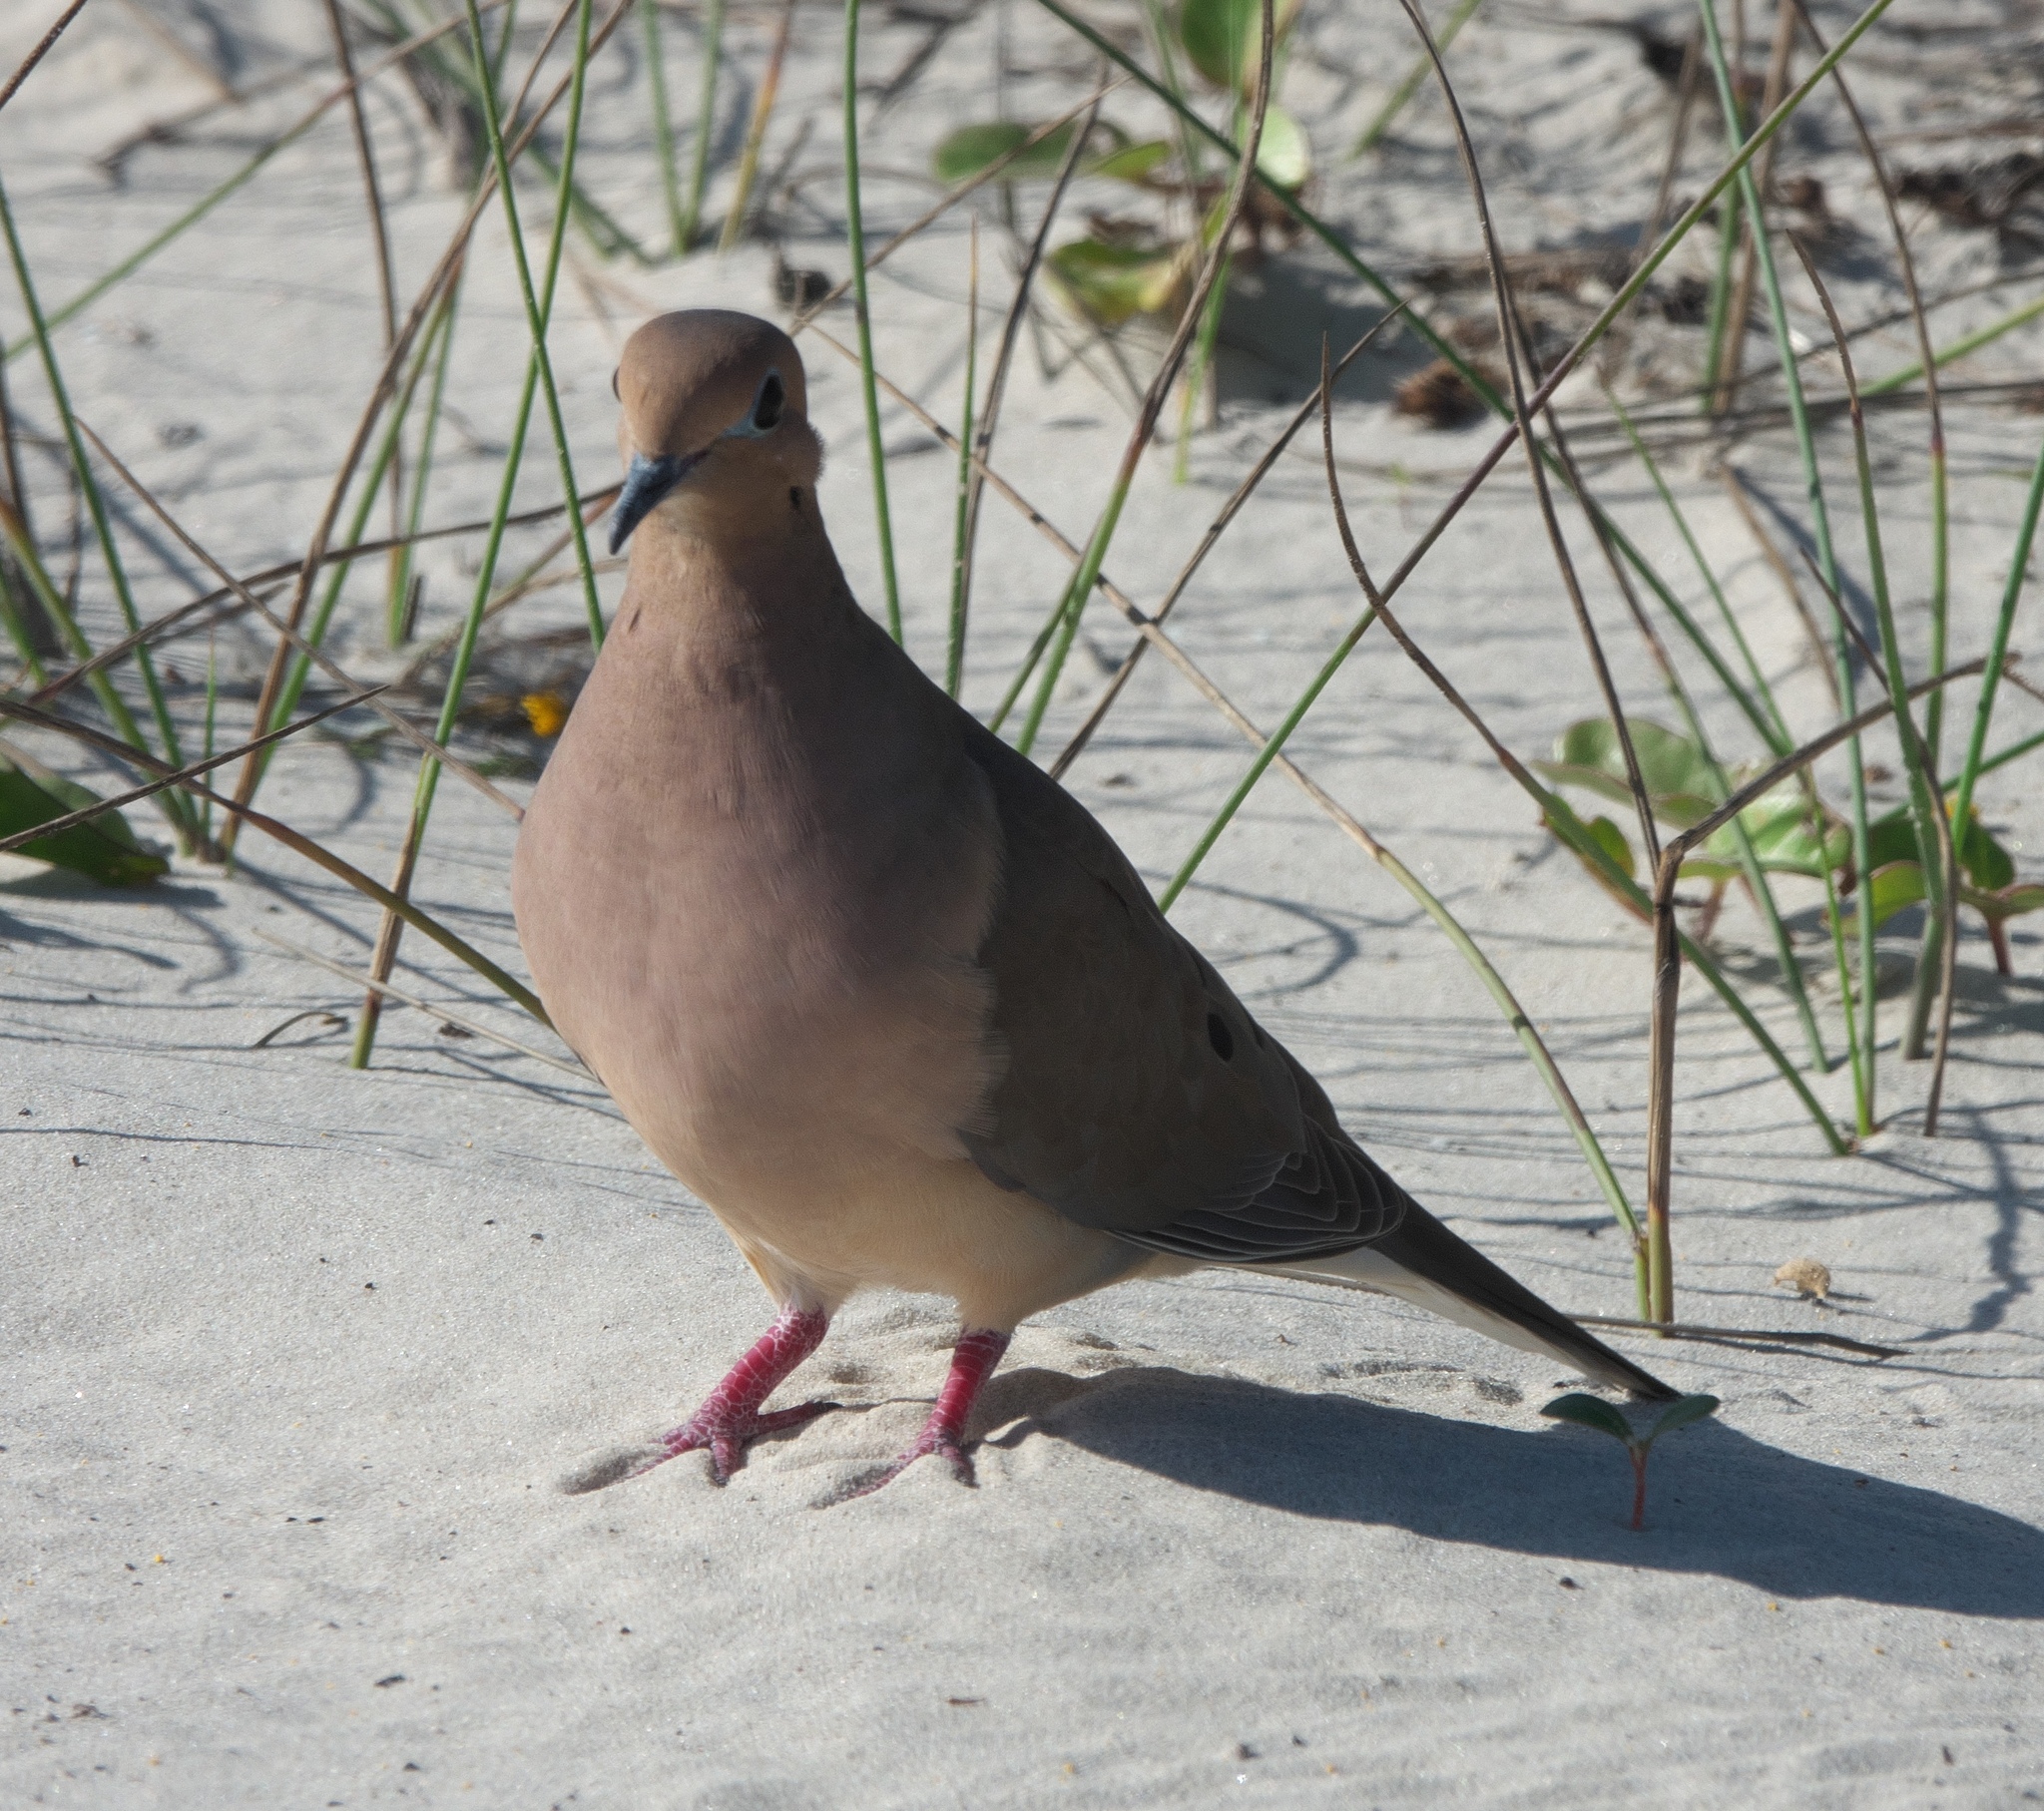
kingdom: Animalia
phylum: Chordata
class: Aves
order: Columbiformes
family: Columbidae
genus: Zenaida
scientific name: Zenaida macroura
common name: Mourning dove
